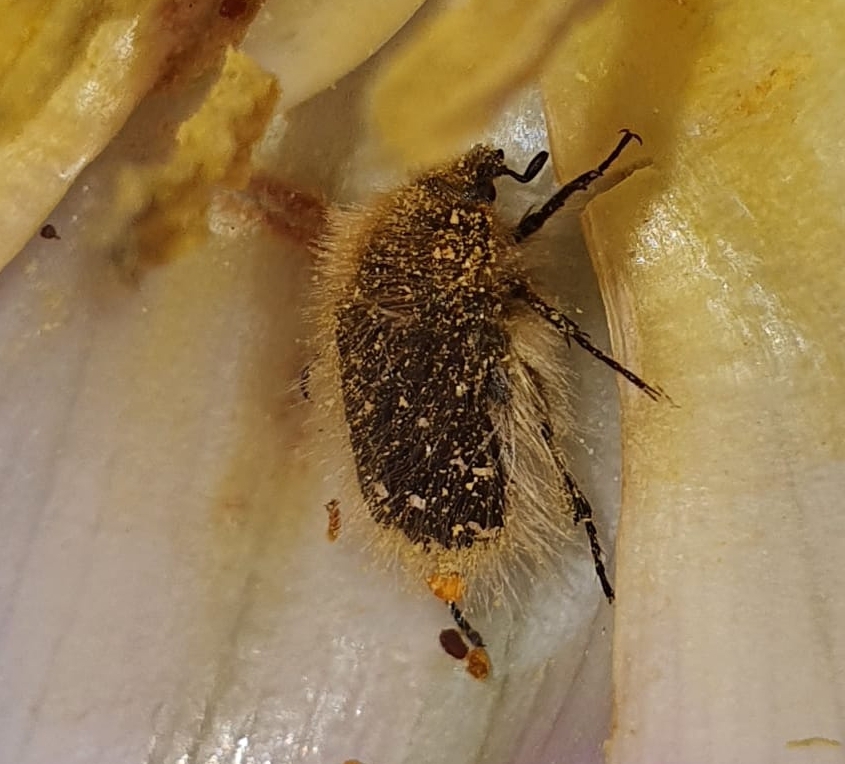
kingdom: Animalia
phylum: Arthropoda
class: Insecta
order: Coleoptera
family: Scarabaeidae
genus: Tropinota
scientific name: Tropinota hirta
